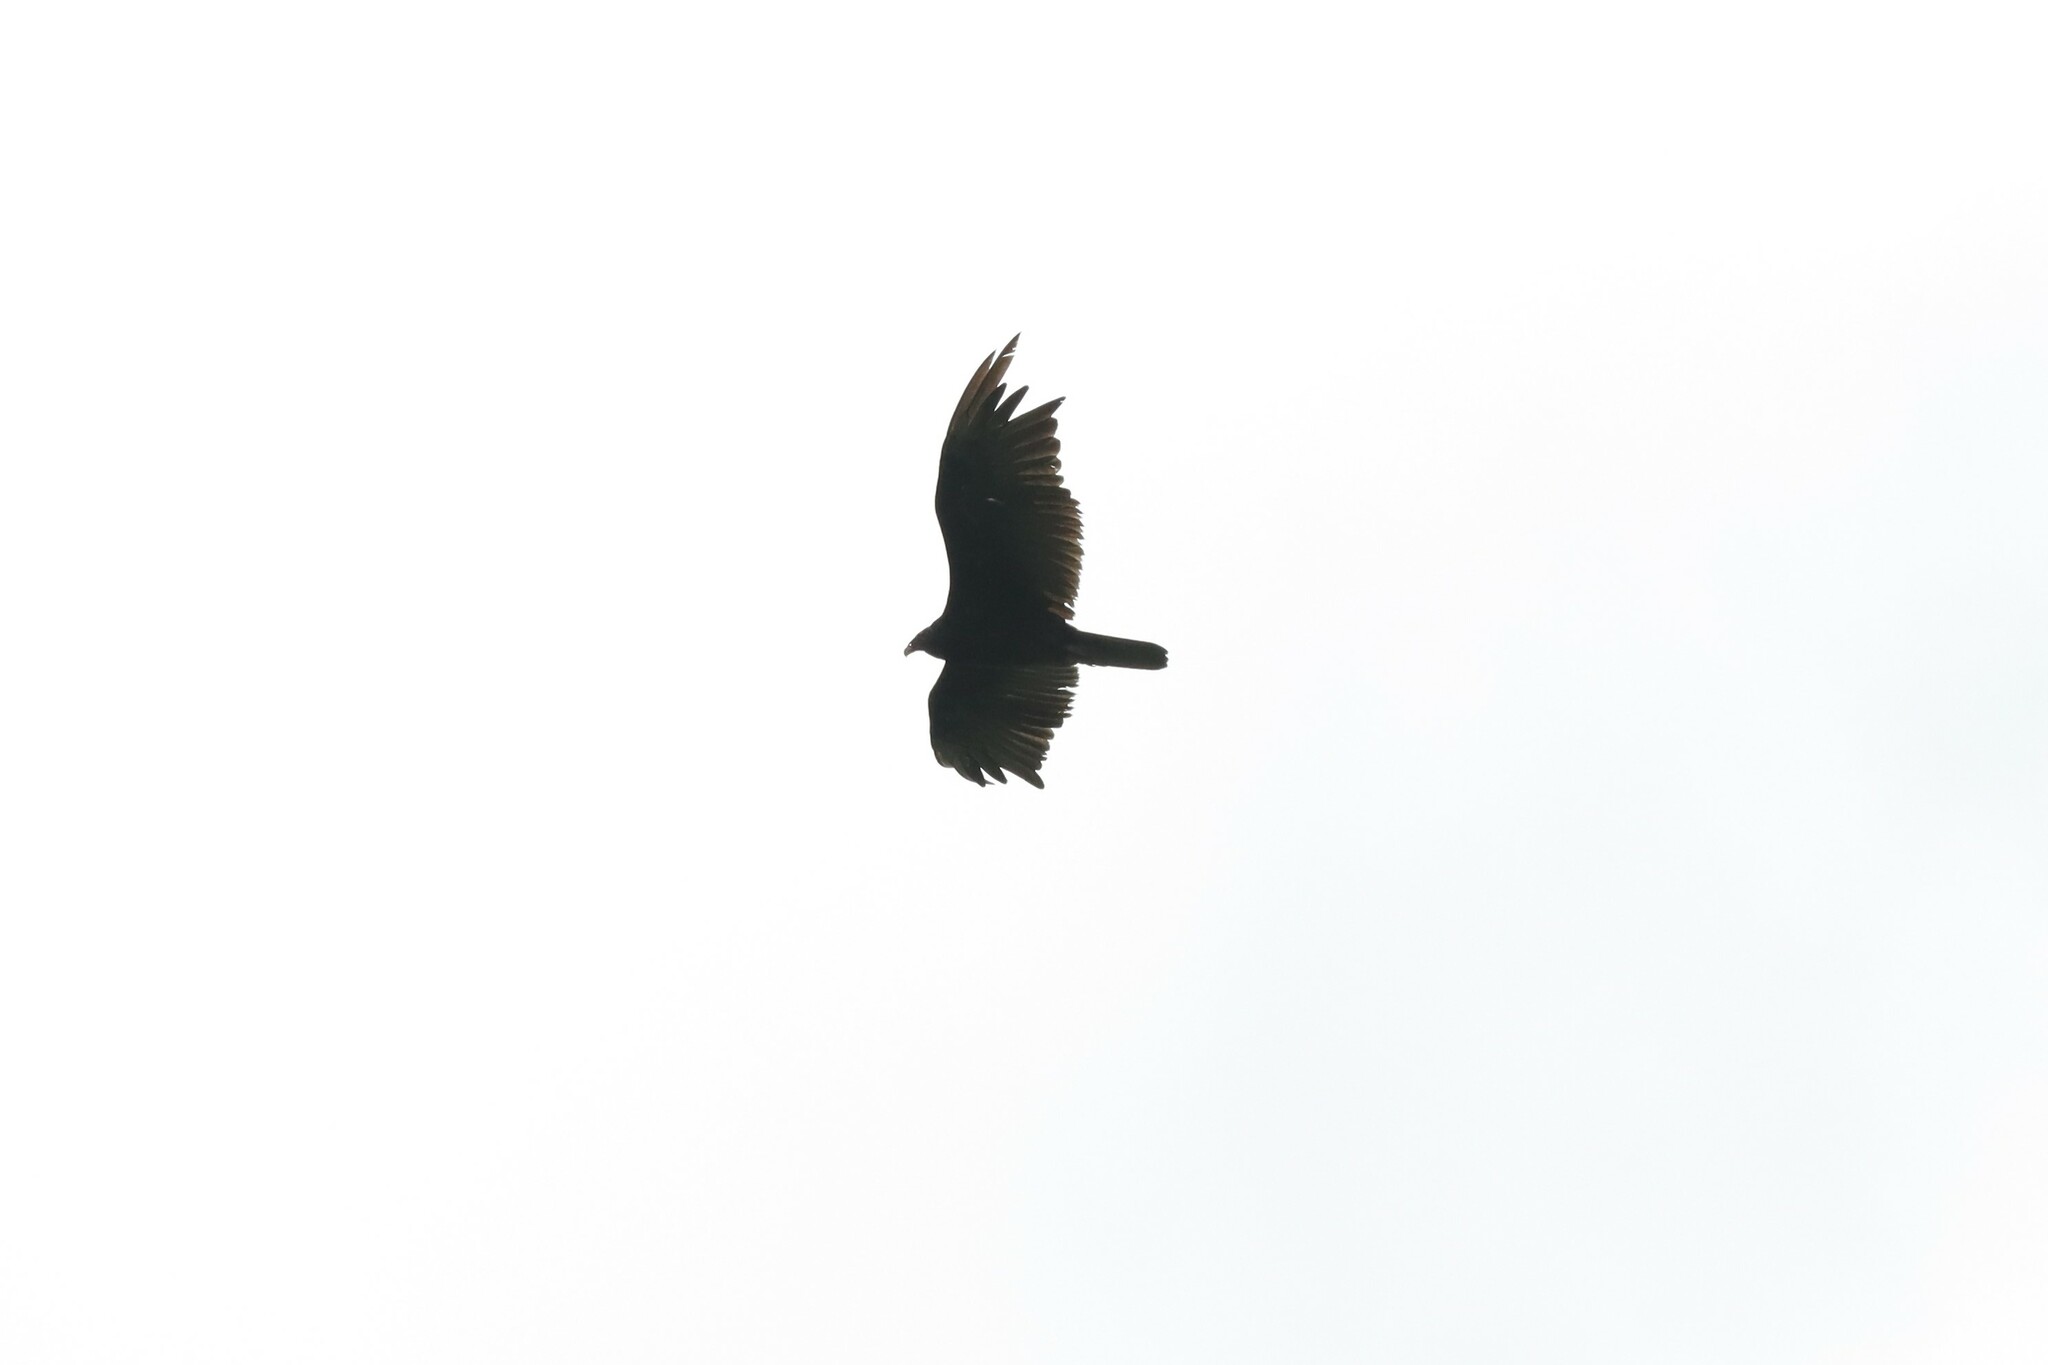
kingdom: Animalia
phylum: Chordata
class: Aves
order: Accipitriformes
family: Cathartidae
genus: Cathartes
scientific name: Cathartes aura
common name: Turkey vulture
